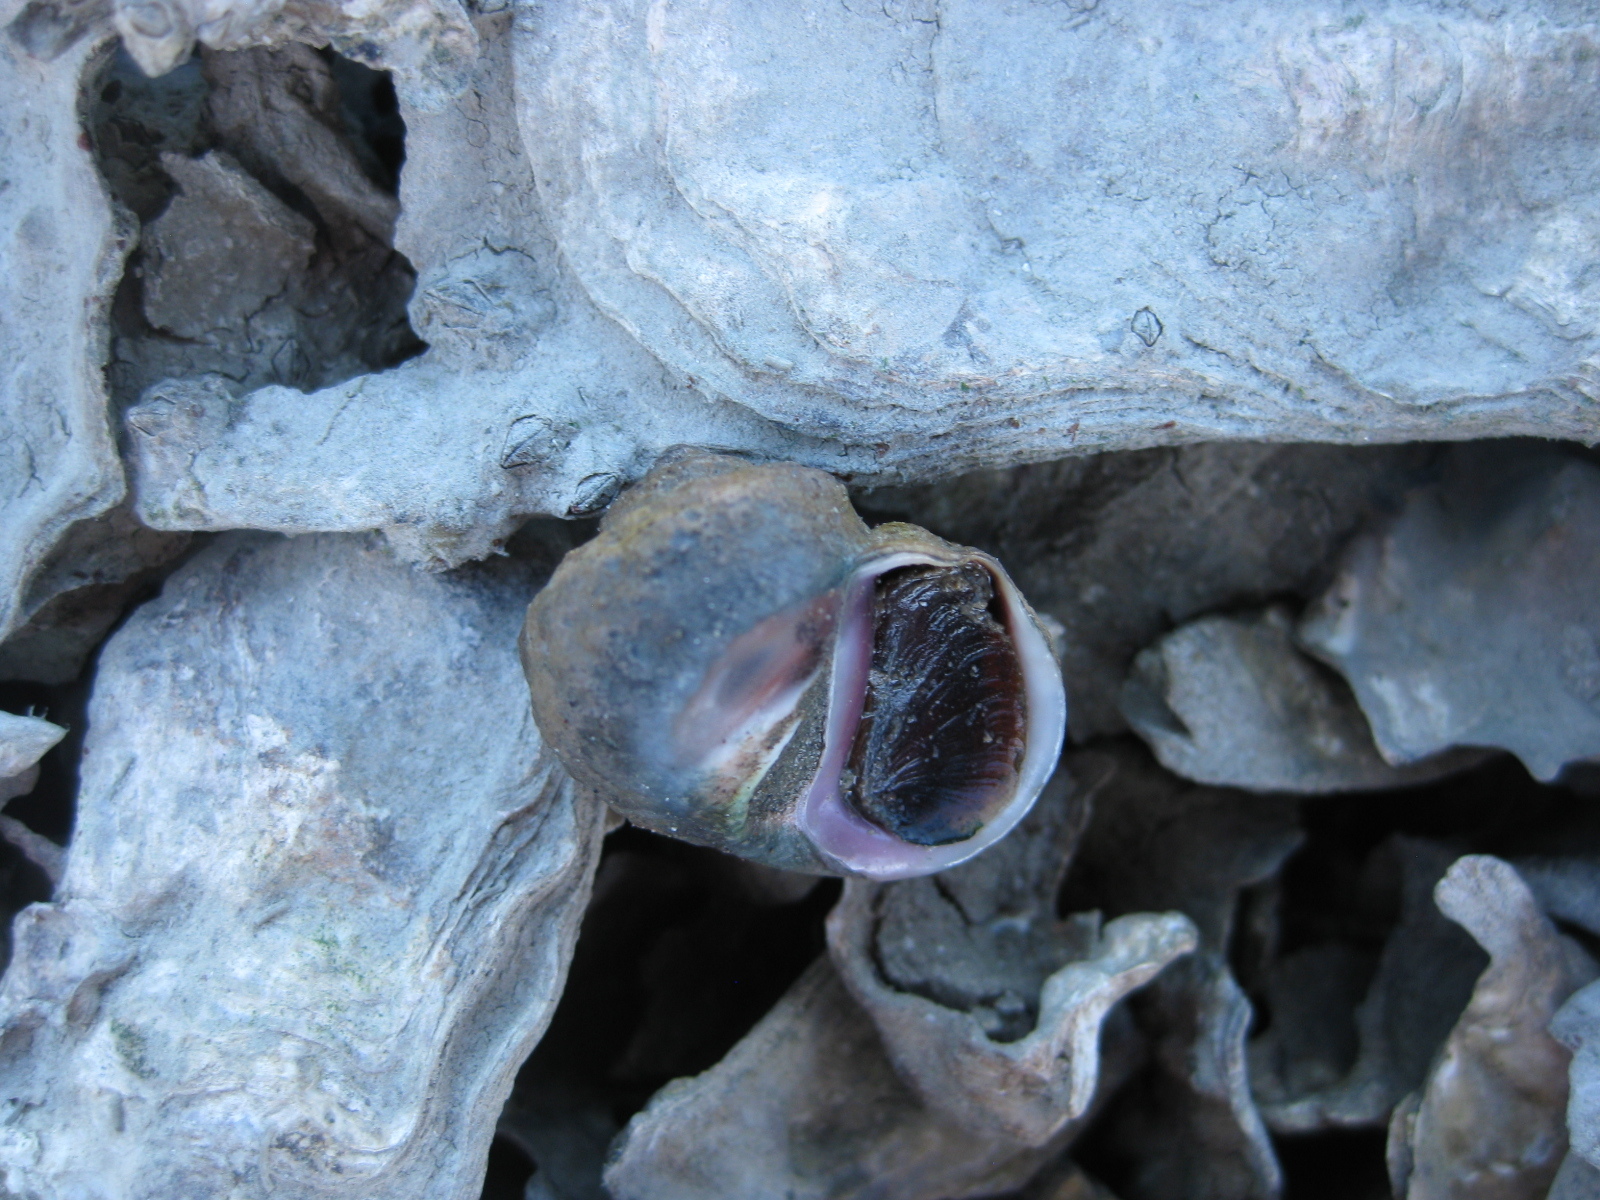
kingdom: Animalia
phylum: Mollusca
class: Gastropoda
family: Amphibolidae
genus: Amphibola
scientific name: Amphibola crenata
